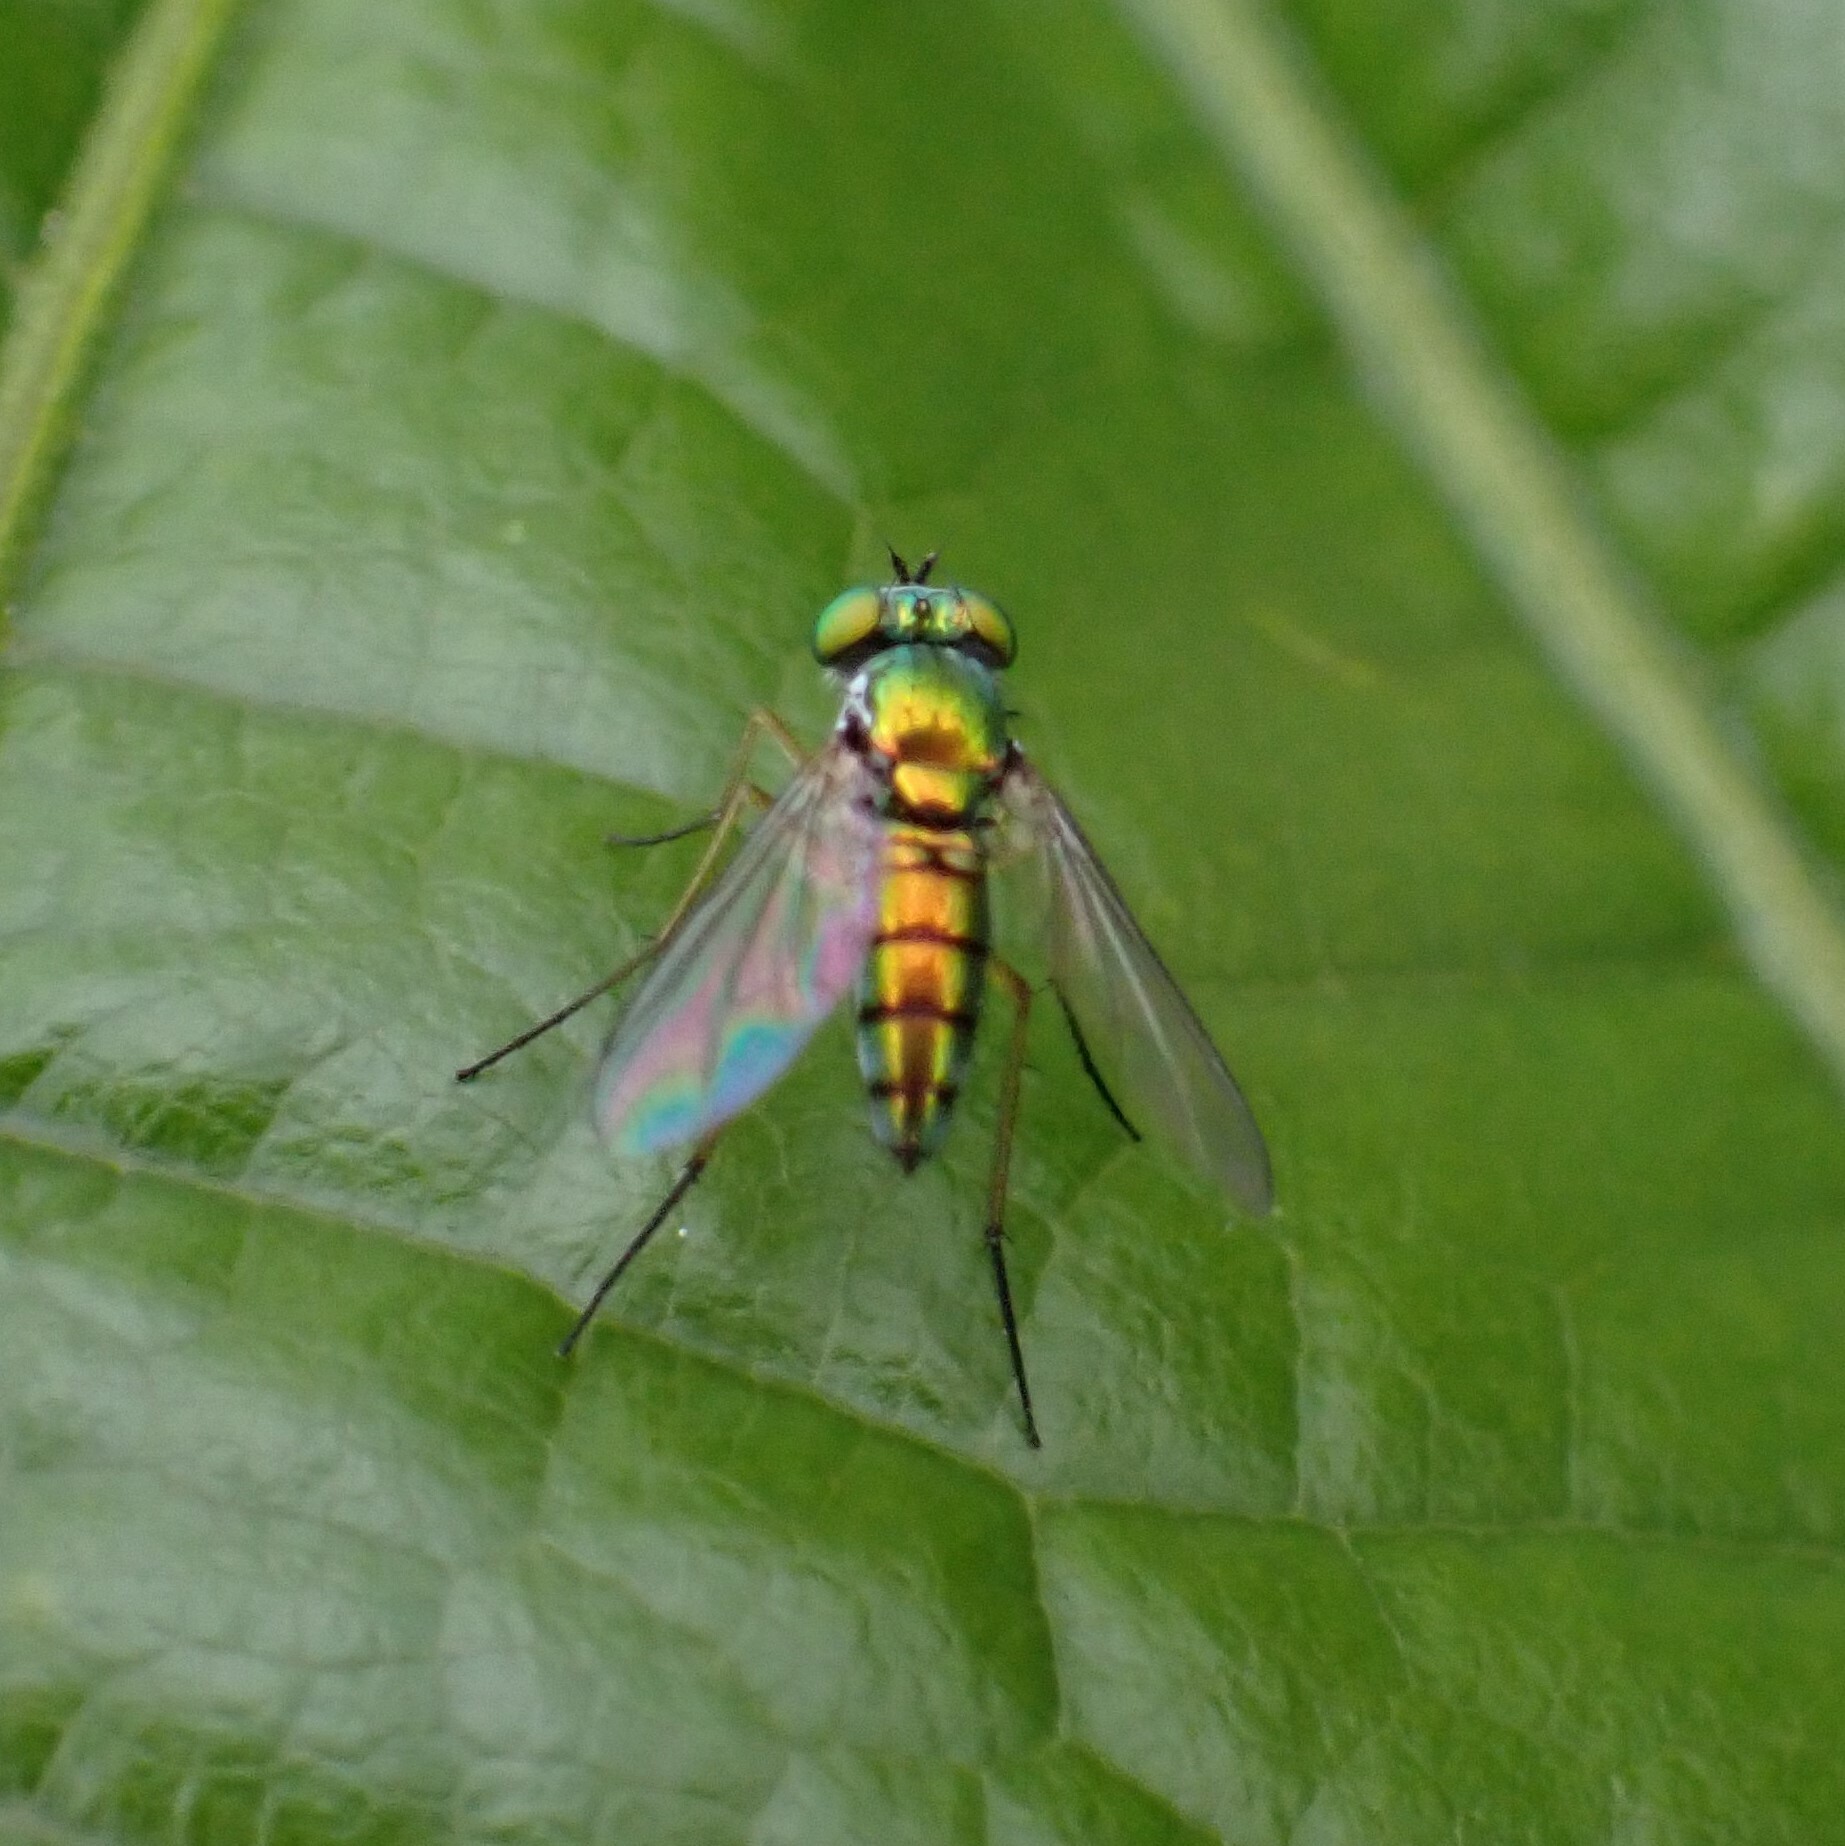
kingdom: Animalia
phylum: Arthropoda
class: Insecta
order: Diptera
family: Dolichopodidae
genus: Condylostylus
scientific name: Condylostylus
